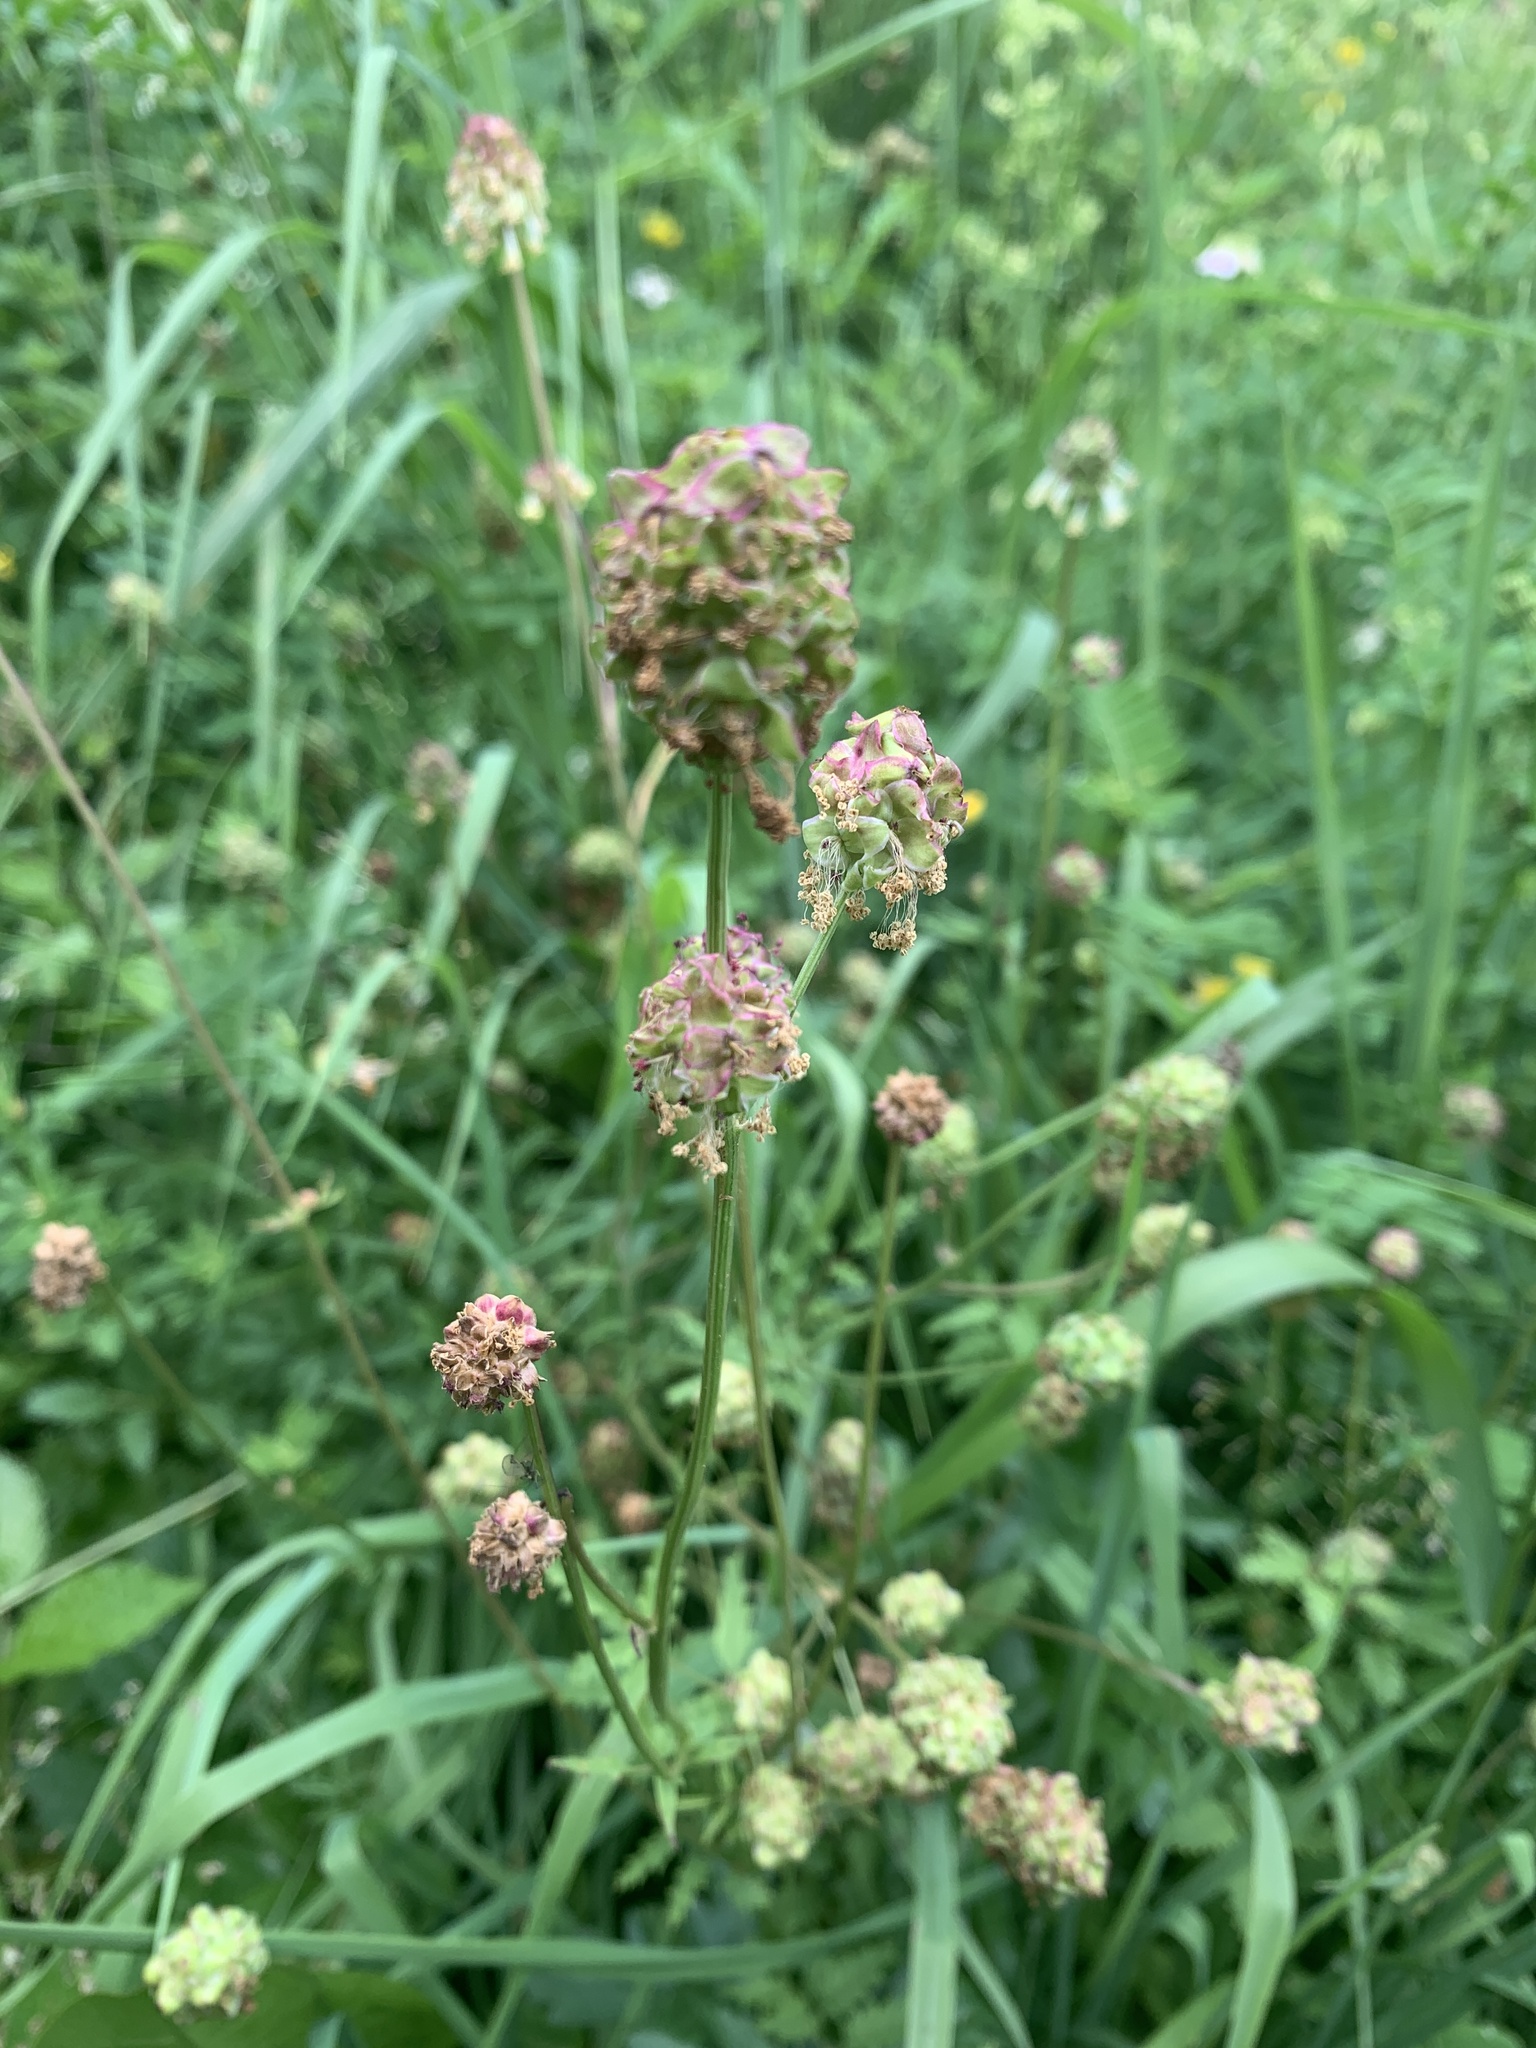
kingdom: Plantae
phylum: Tracheophyta
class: Magnoliopsida
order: Rosales
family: Rosaceae
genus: Poterium
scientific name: Poterium sanguisorba
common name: Salad burnet
